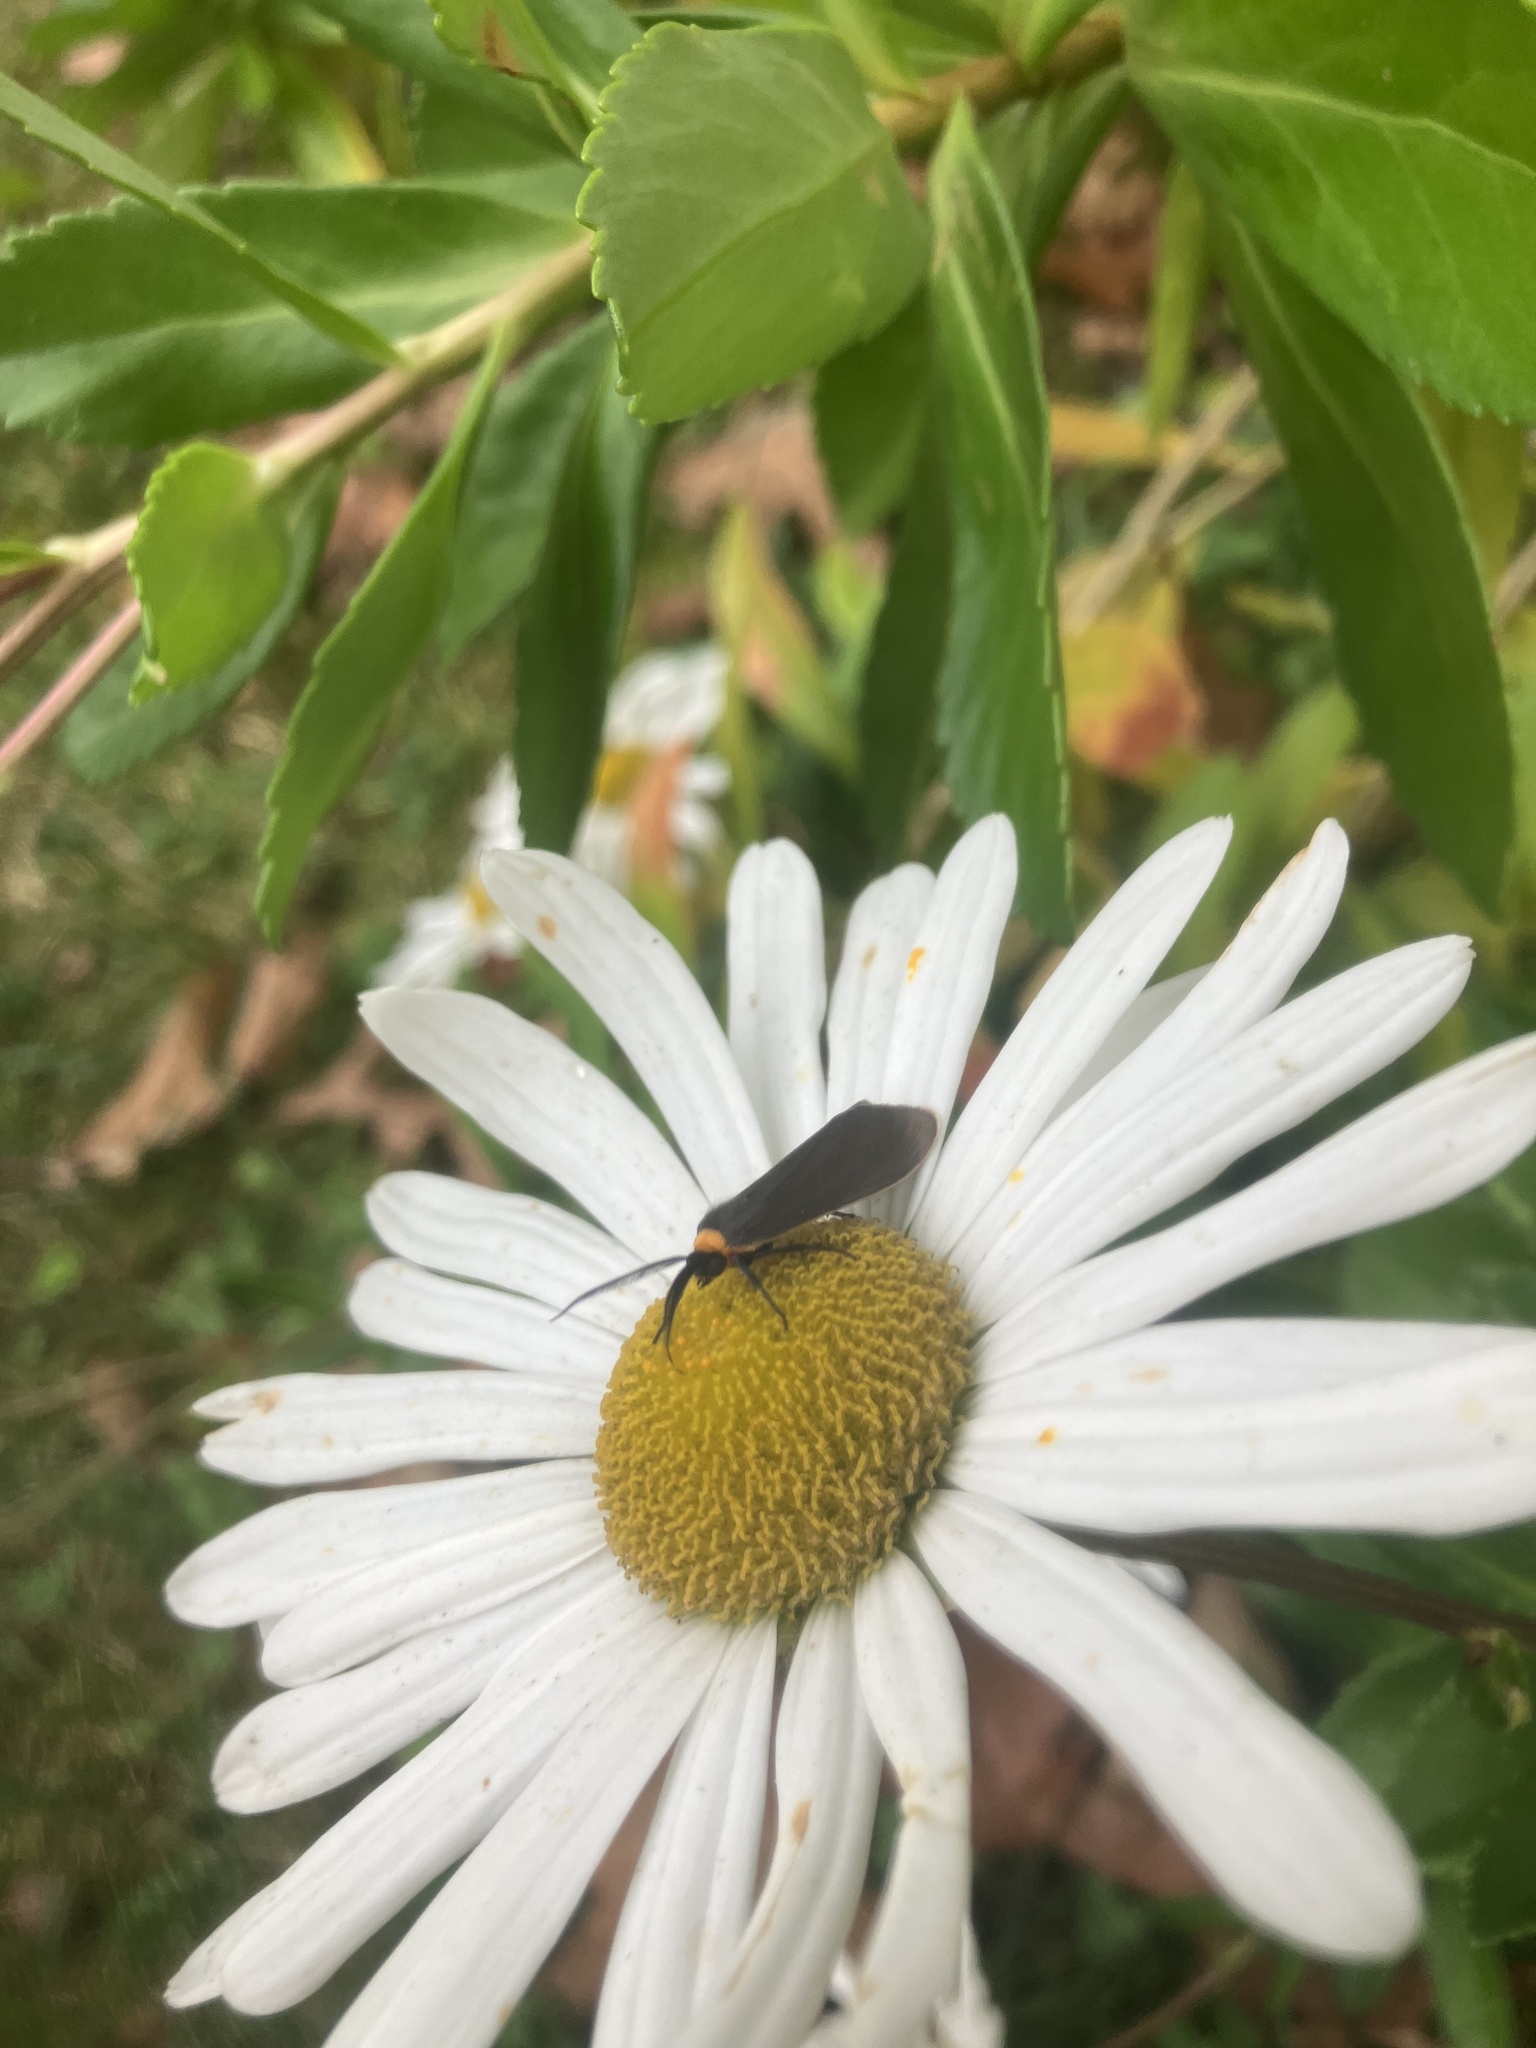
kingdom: Animalia
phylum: Arthropoda
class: Insecta
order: Lepidoptera
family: Erebidae
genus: Cisseps
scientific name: Cisseps fulvicollis
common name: Yellow-collared scape moth
